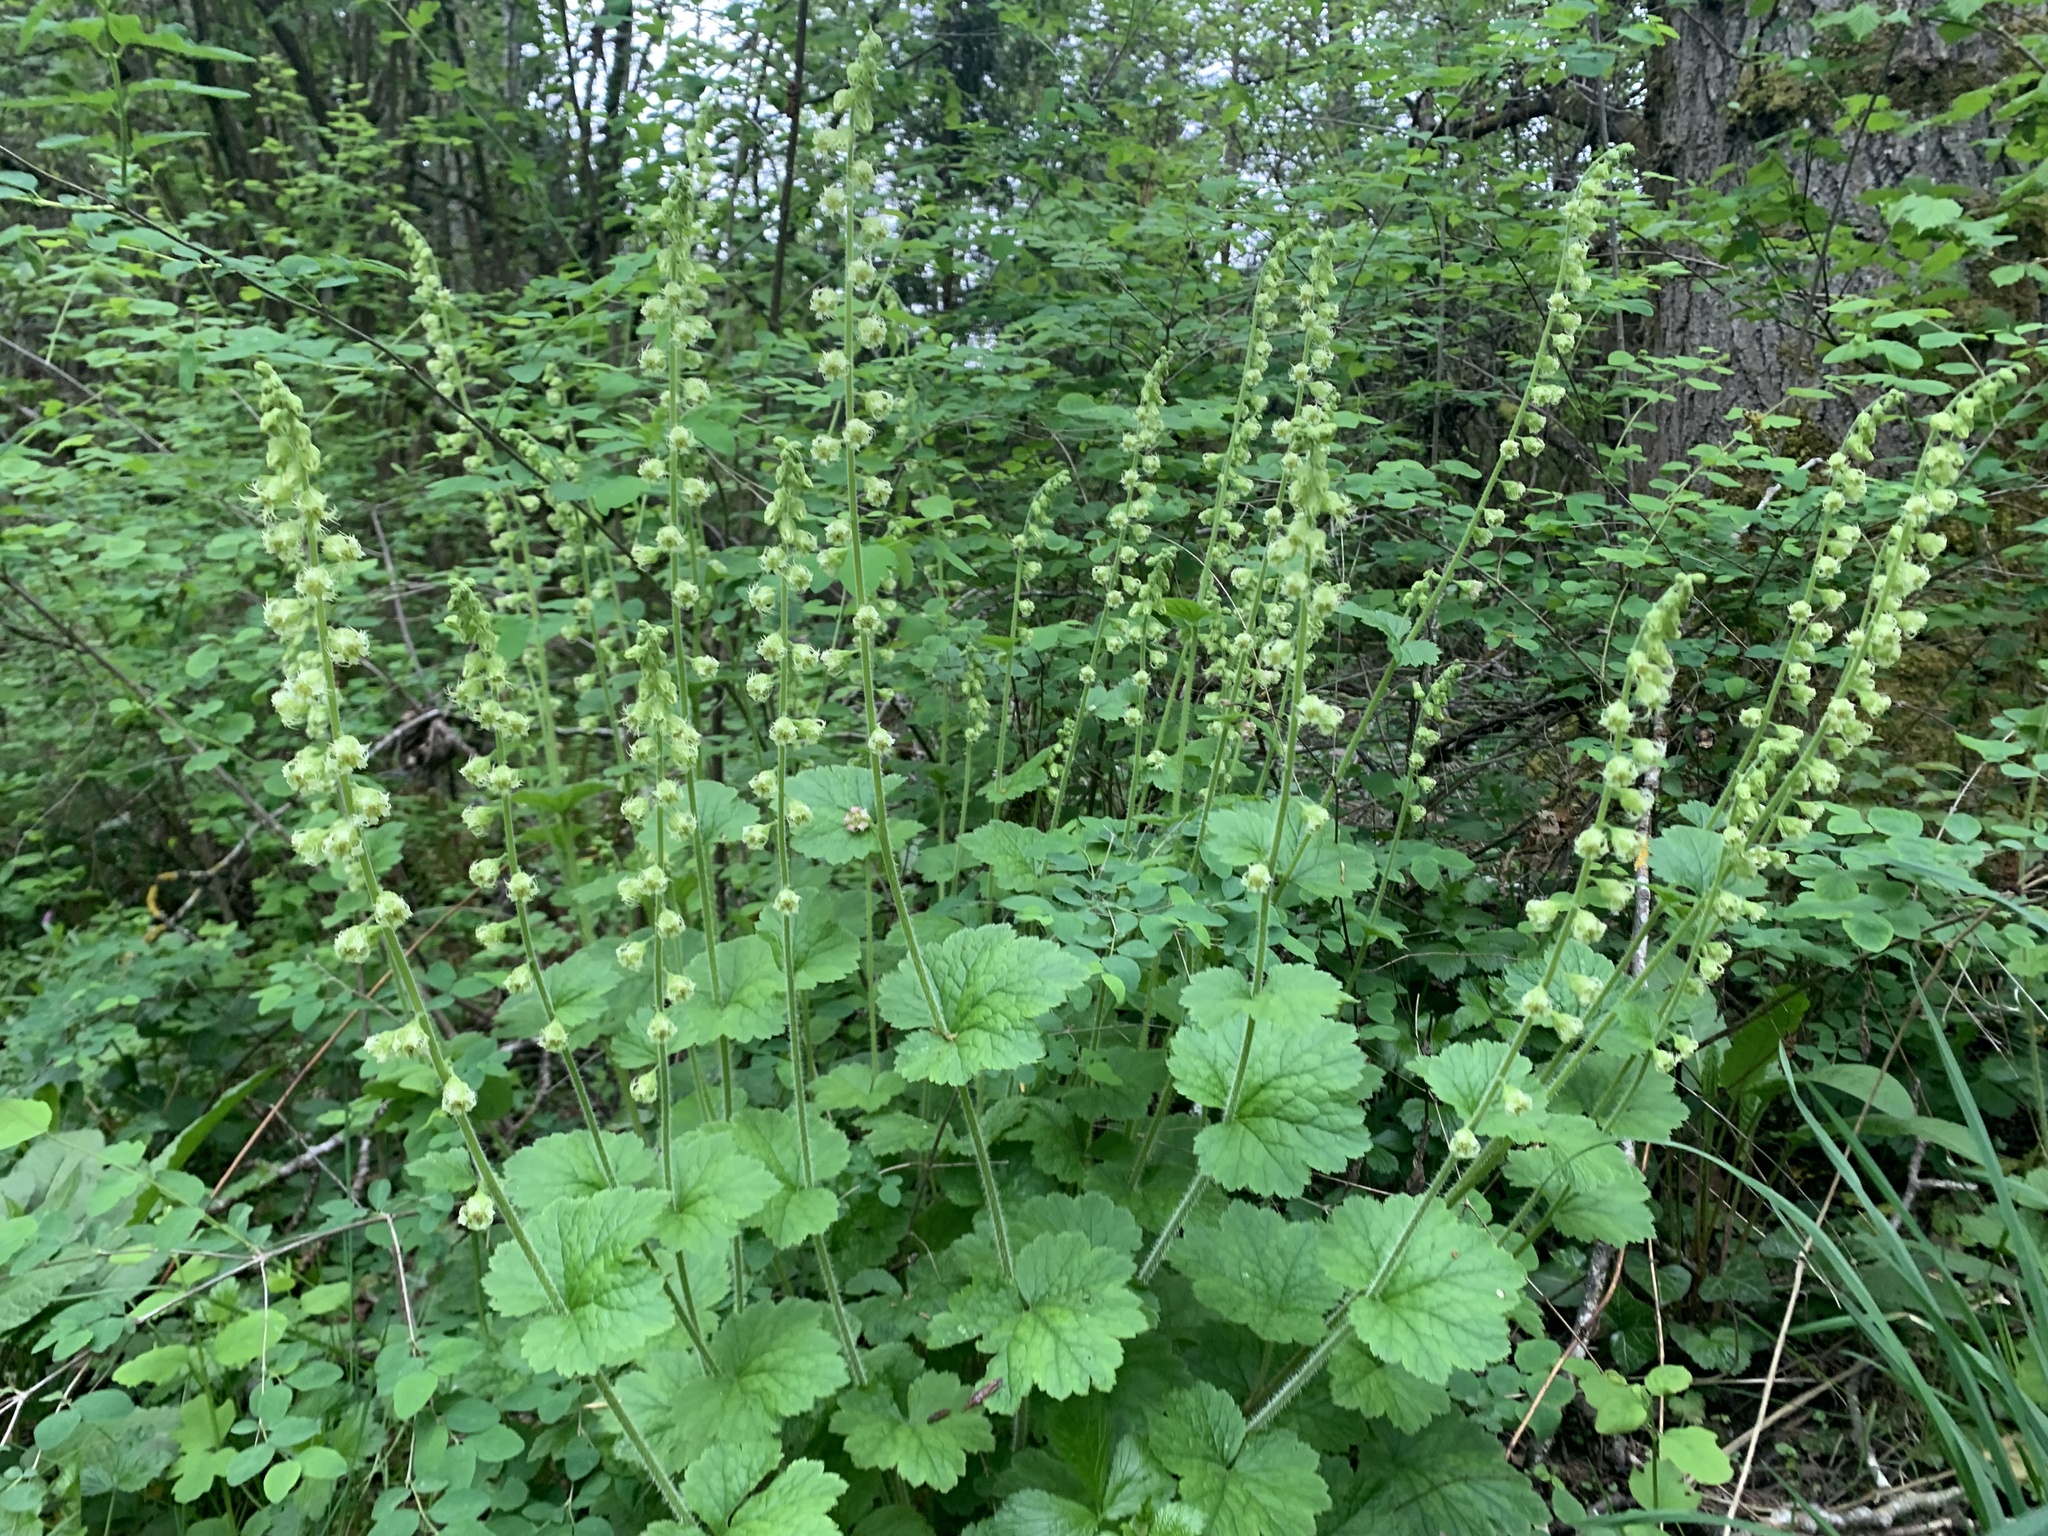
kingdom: Plantae
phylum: Tracheophyta
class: Magnoliopsida
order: Saxifragales
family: Saxifragaceae
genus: Tellima
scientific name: Tellima grandiflora
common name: Fringecups
